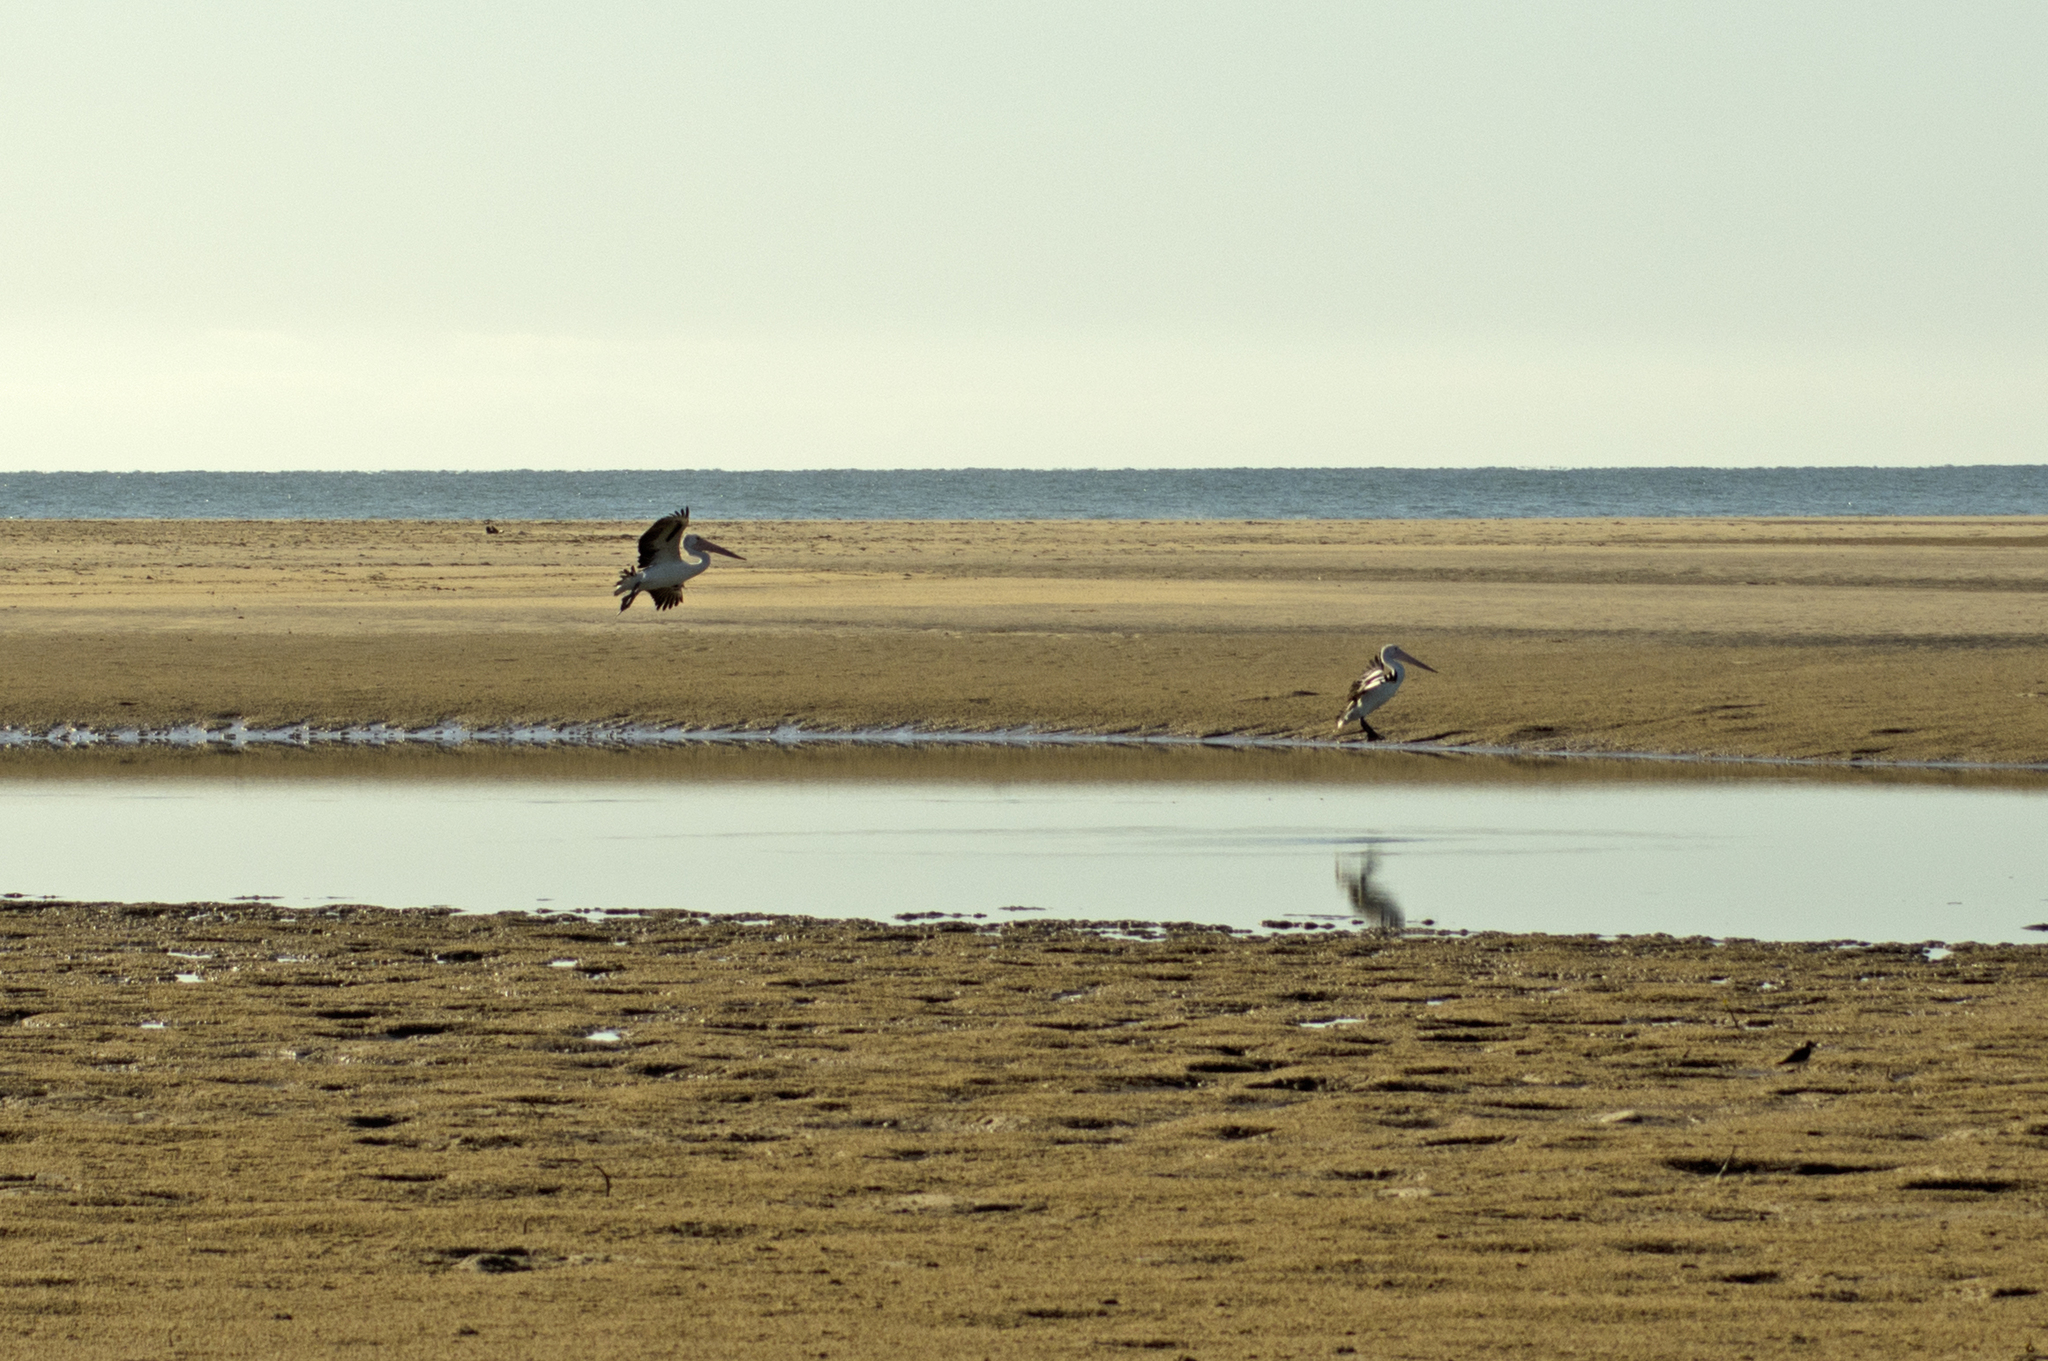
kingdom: Animalia
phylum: Chordata
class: Aves
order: Pelecaniformes
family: Pelecanidae
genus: Pelecanus
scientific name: Pelecanus conspicillatus
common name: Australian pelican
